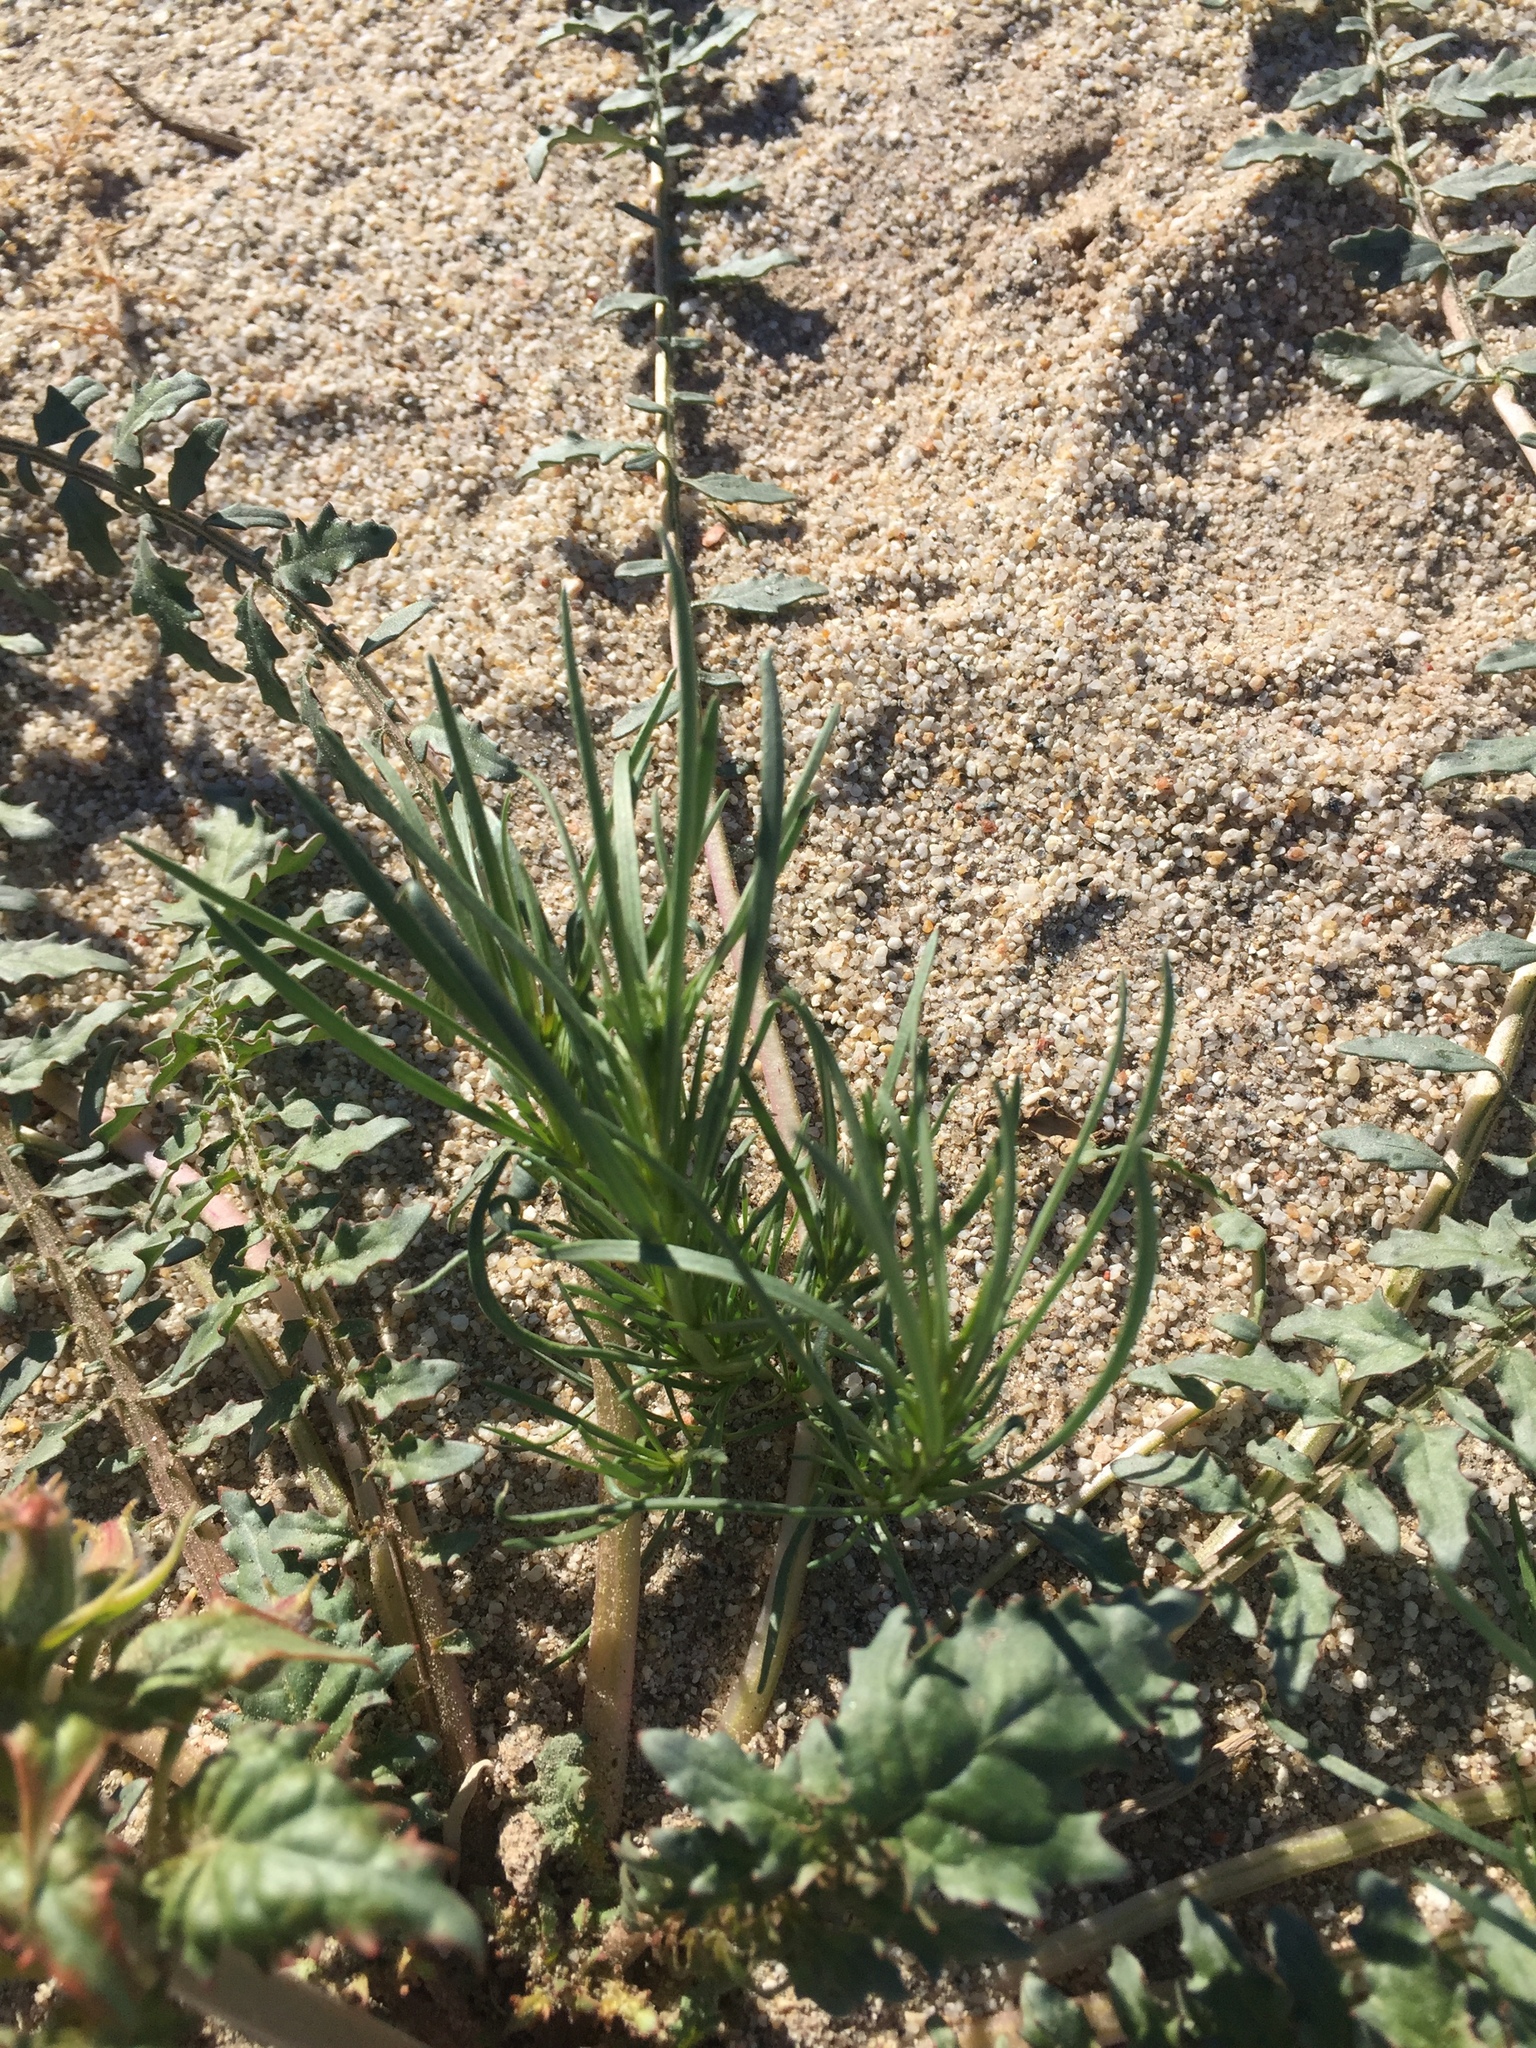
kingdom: Plantae
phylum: Tracheophyta
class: Magnoliopsida
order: Brassicales
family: Resedaceae
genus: Oligomeris
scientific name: Oligomeris linifolia
